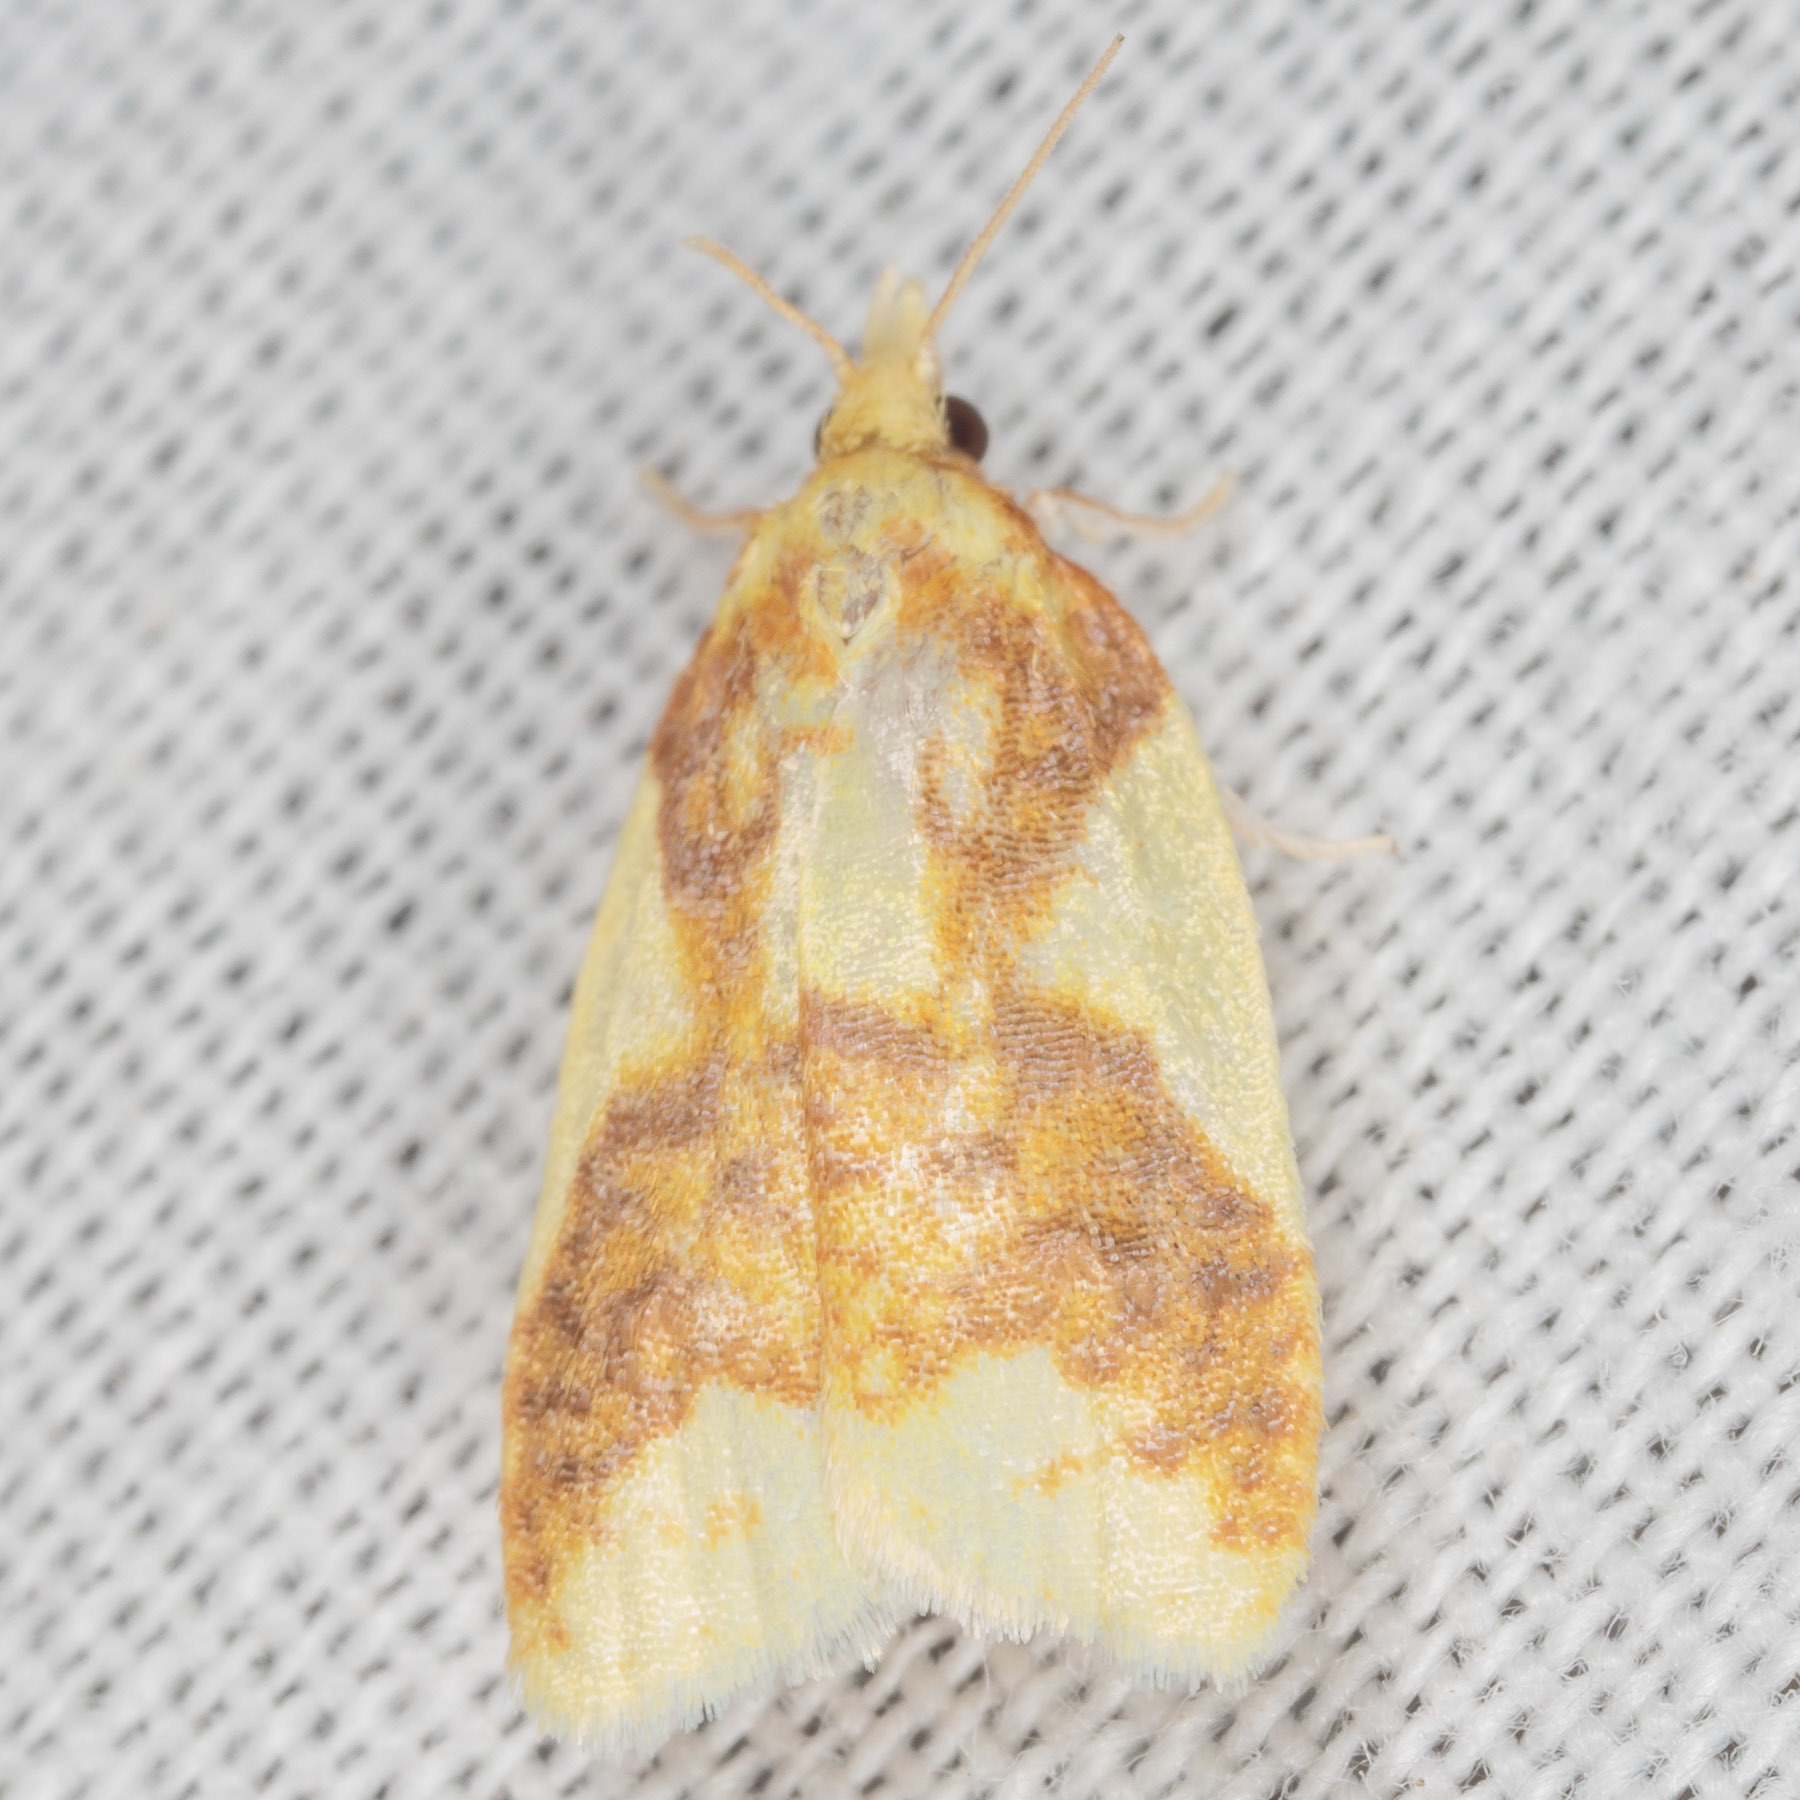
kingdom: Animalia
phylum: Arthropoda
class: Insecta
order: Lepidoptera
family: Tortricidae
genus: Sparganothis
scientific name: Sparganothis pulcherrimana
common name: Beautiful sparganothis
